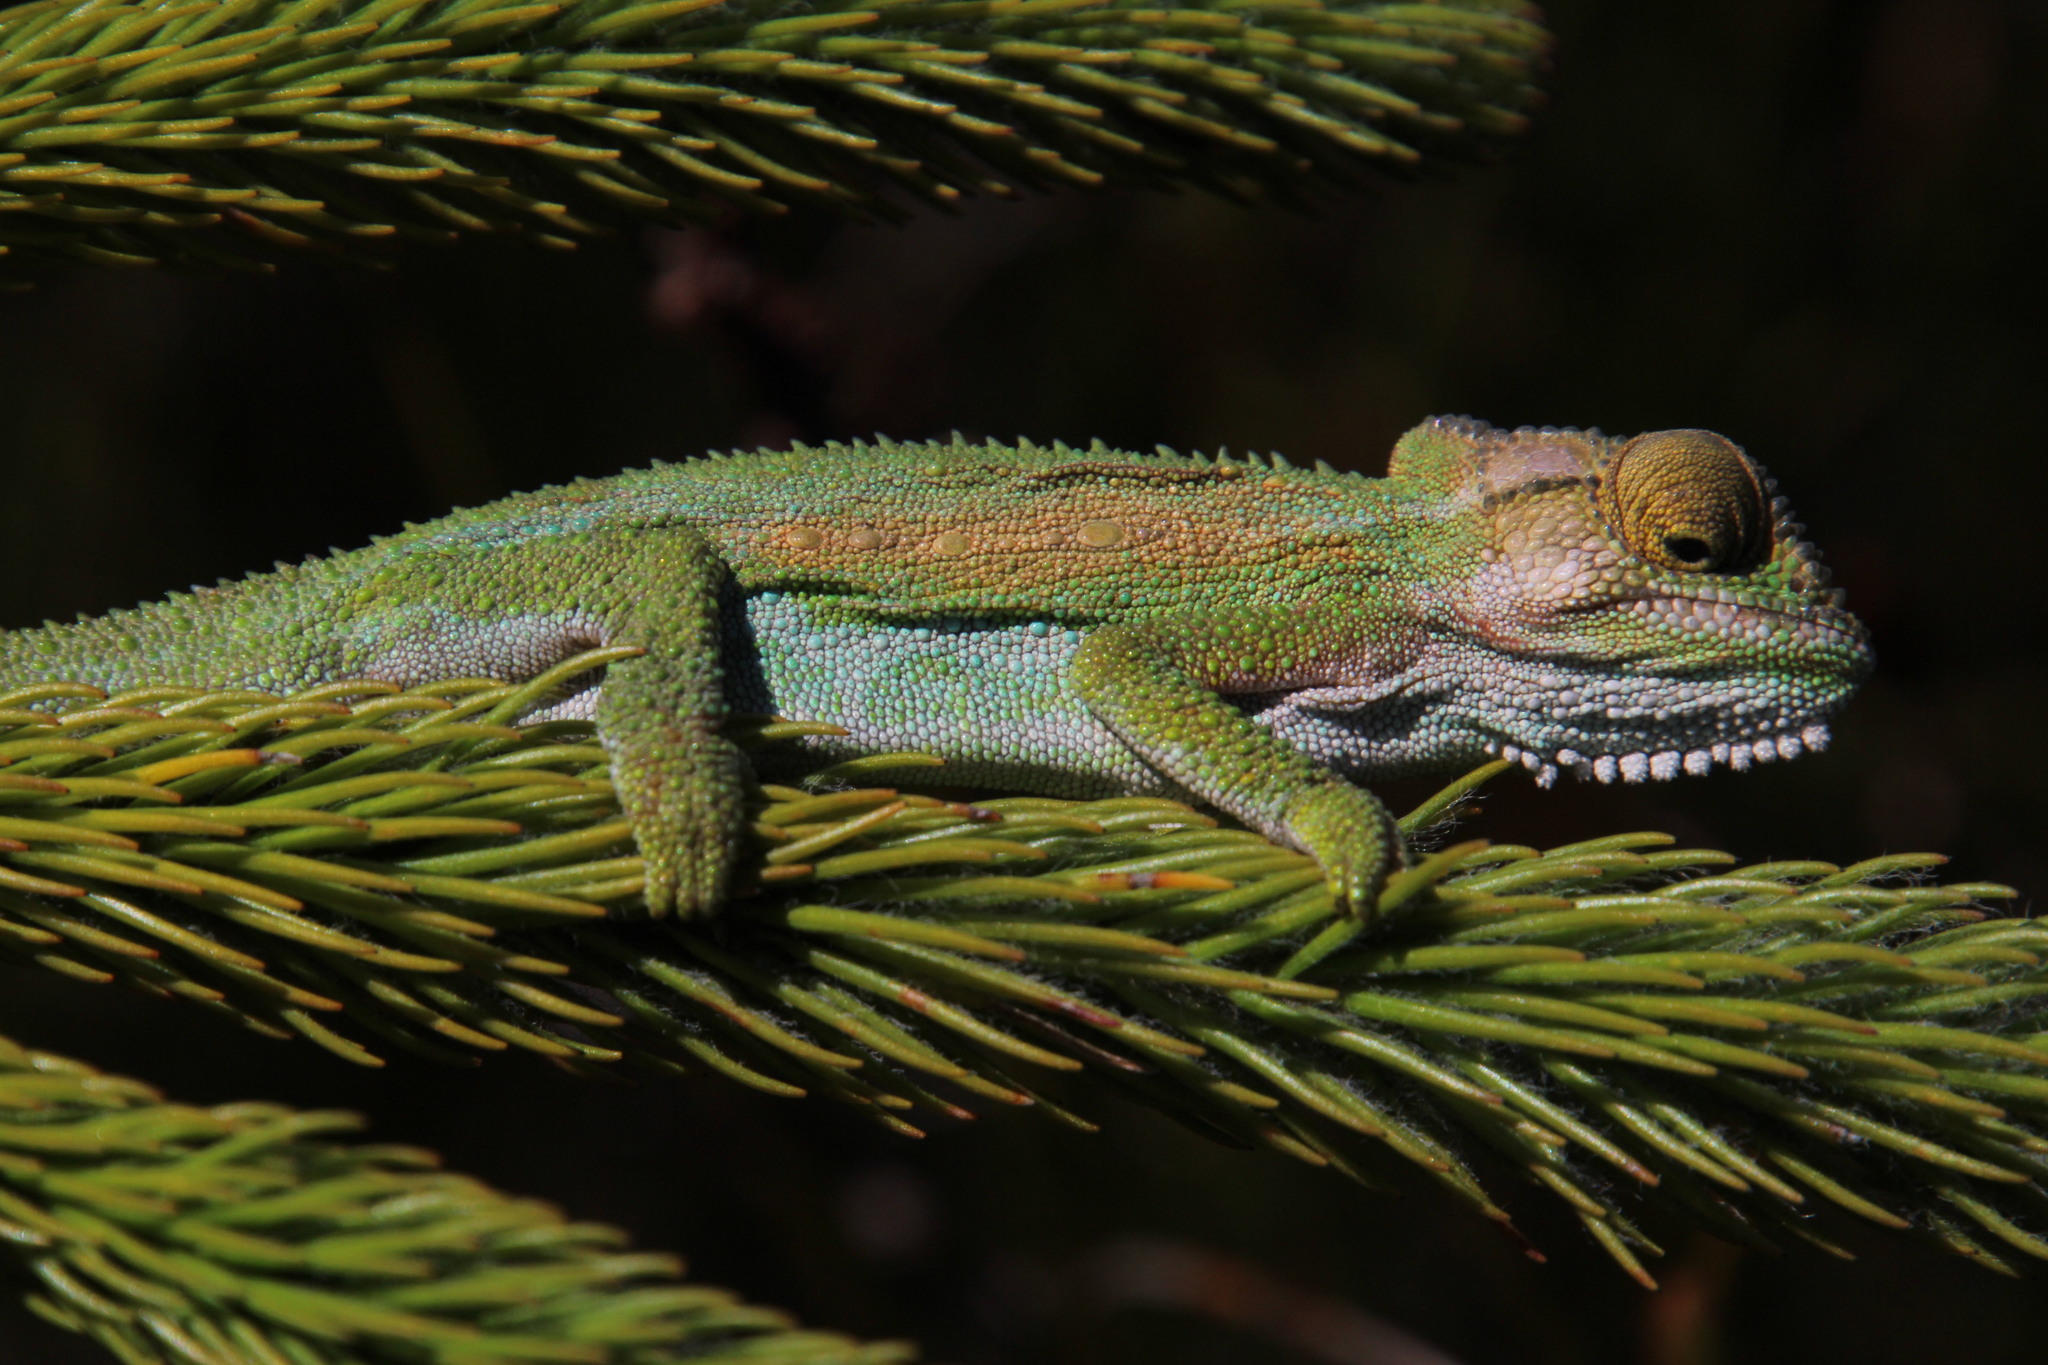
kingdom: Animalia
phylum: Chordata
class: Squamata
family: Chamaeleonidae
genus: Bradypodion
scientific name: Bradypodion pumilum
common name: Cape dwarf chameleon
